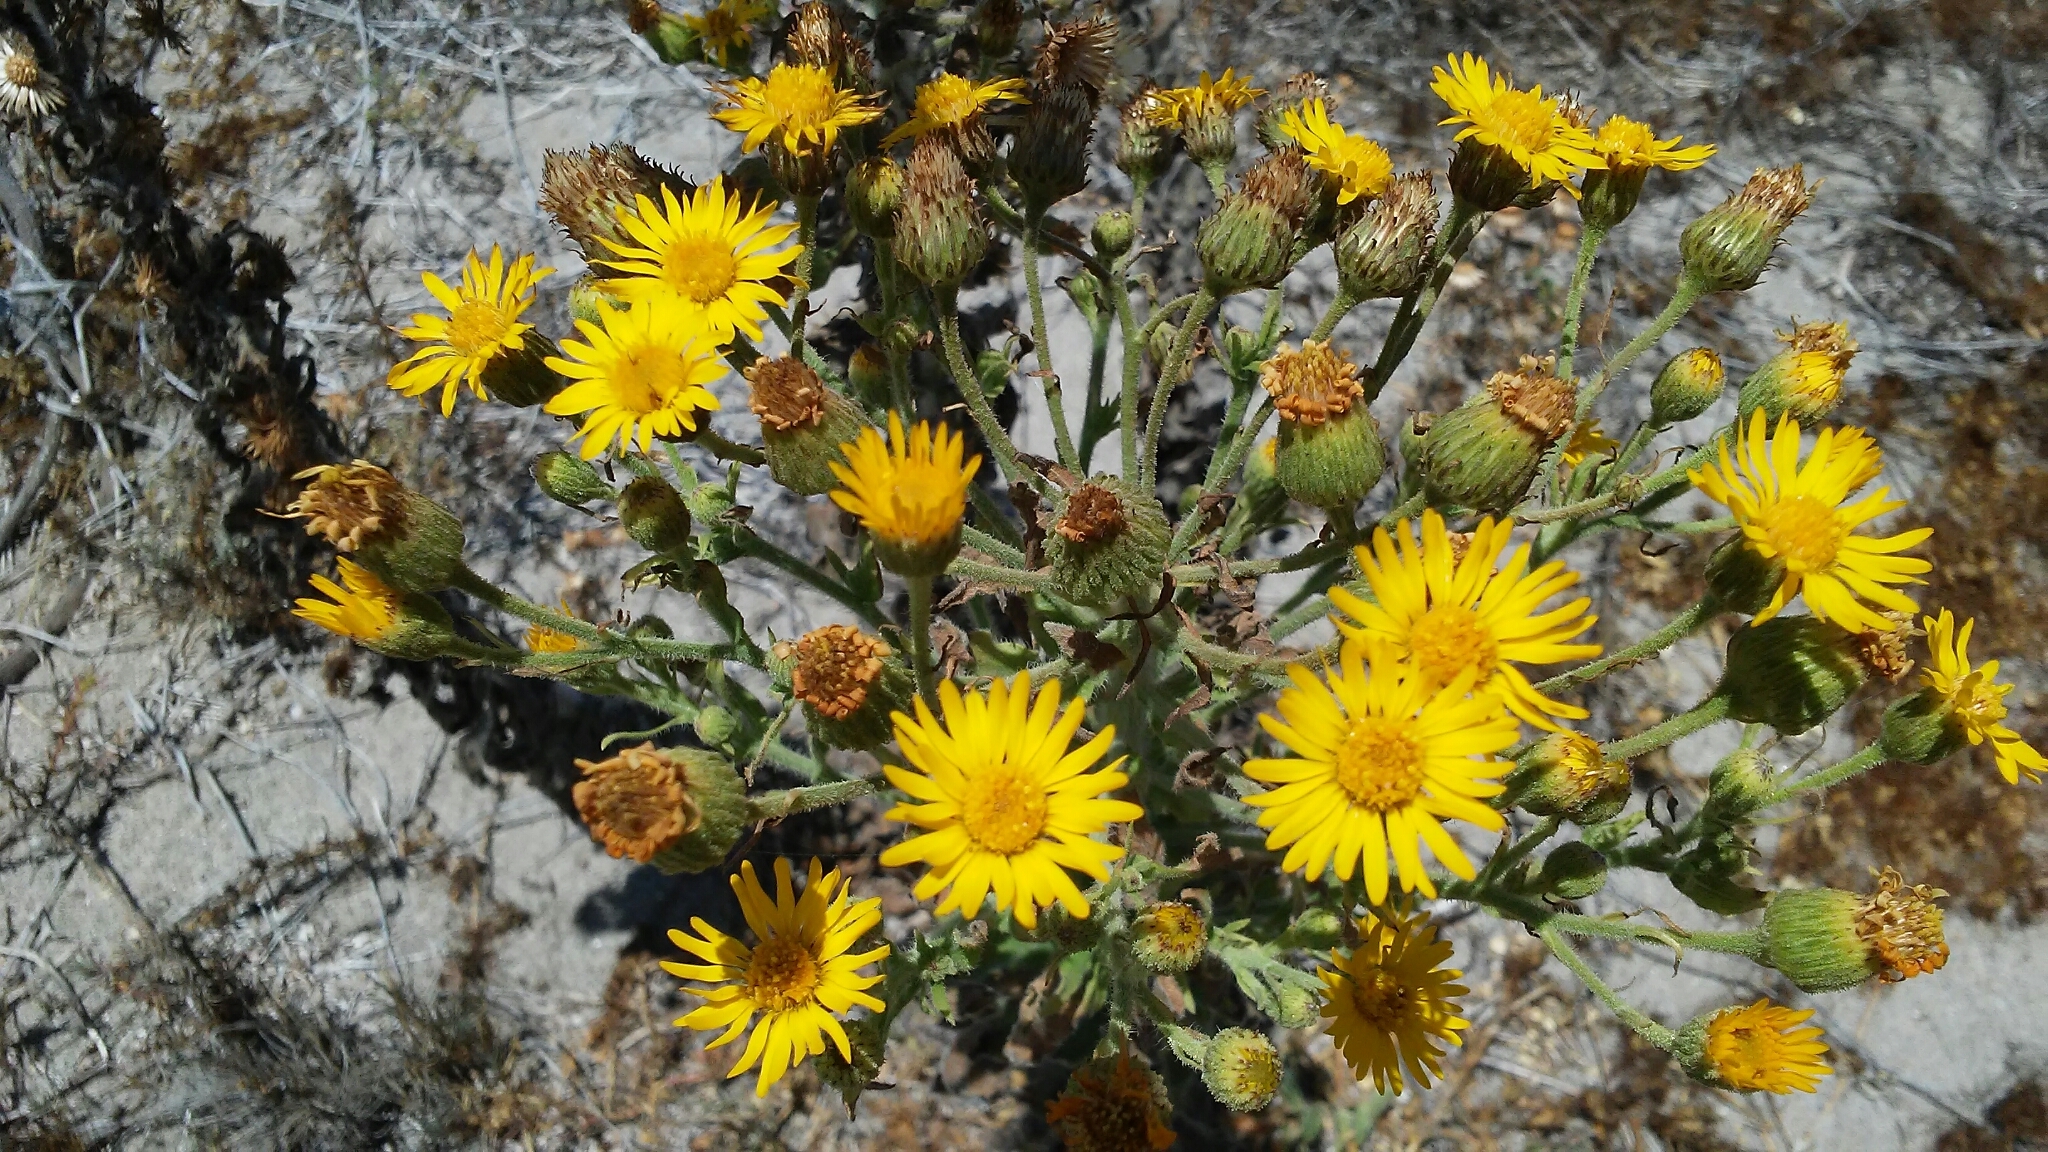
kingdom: Plantae
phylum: Tracheophyta
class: Magnoliopsida
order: Asterales
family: Asteraceae
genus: Heterotheca
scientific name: Heterotheca grandiflora
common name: Telegraphweed
